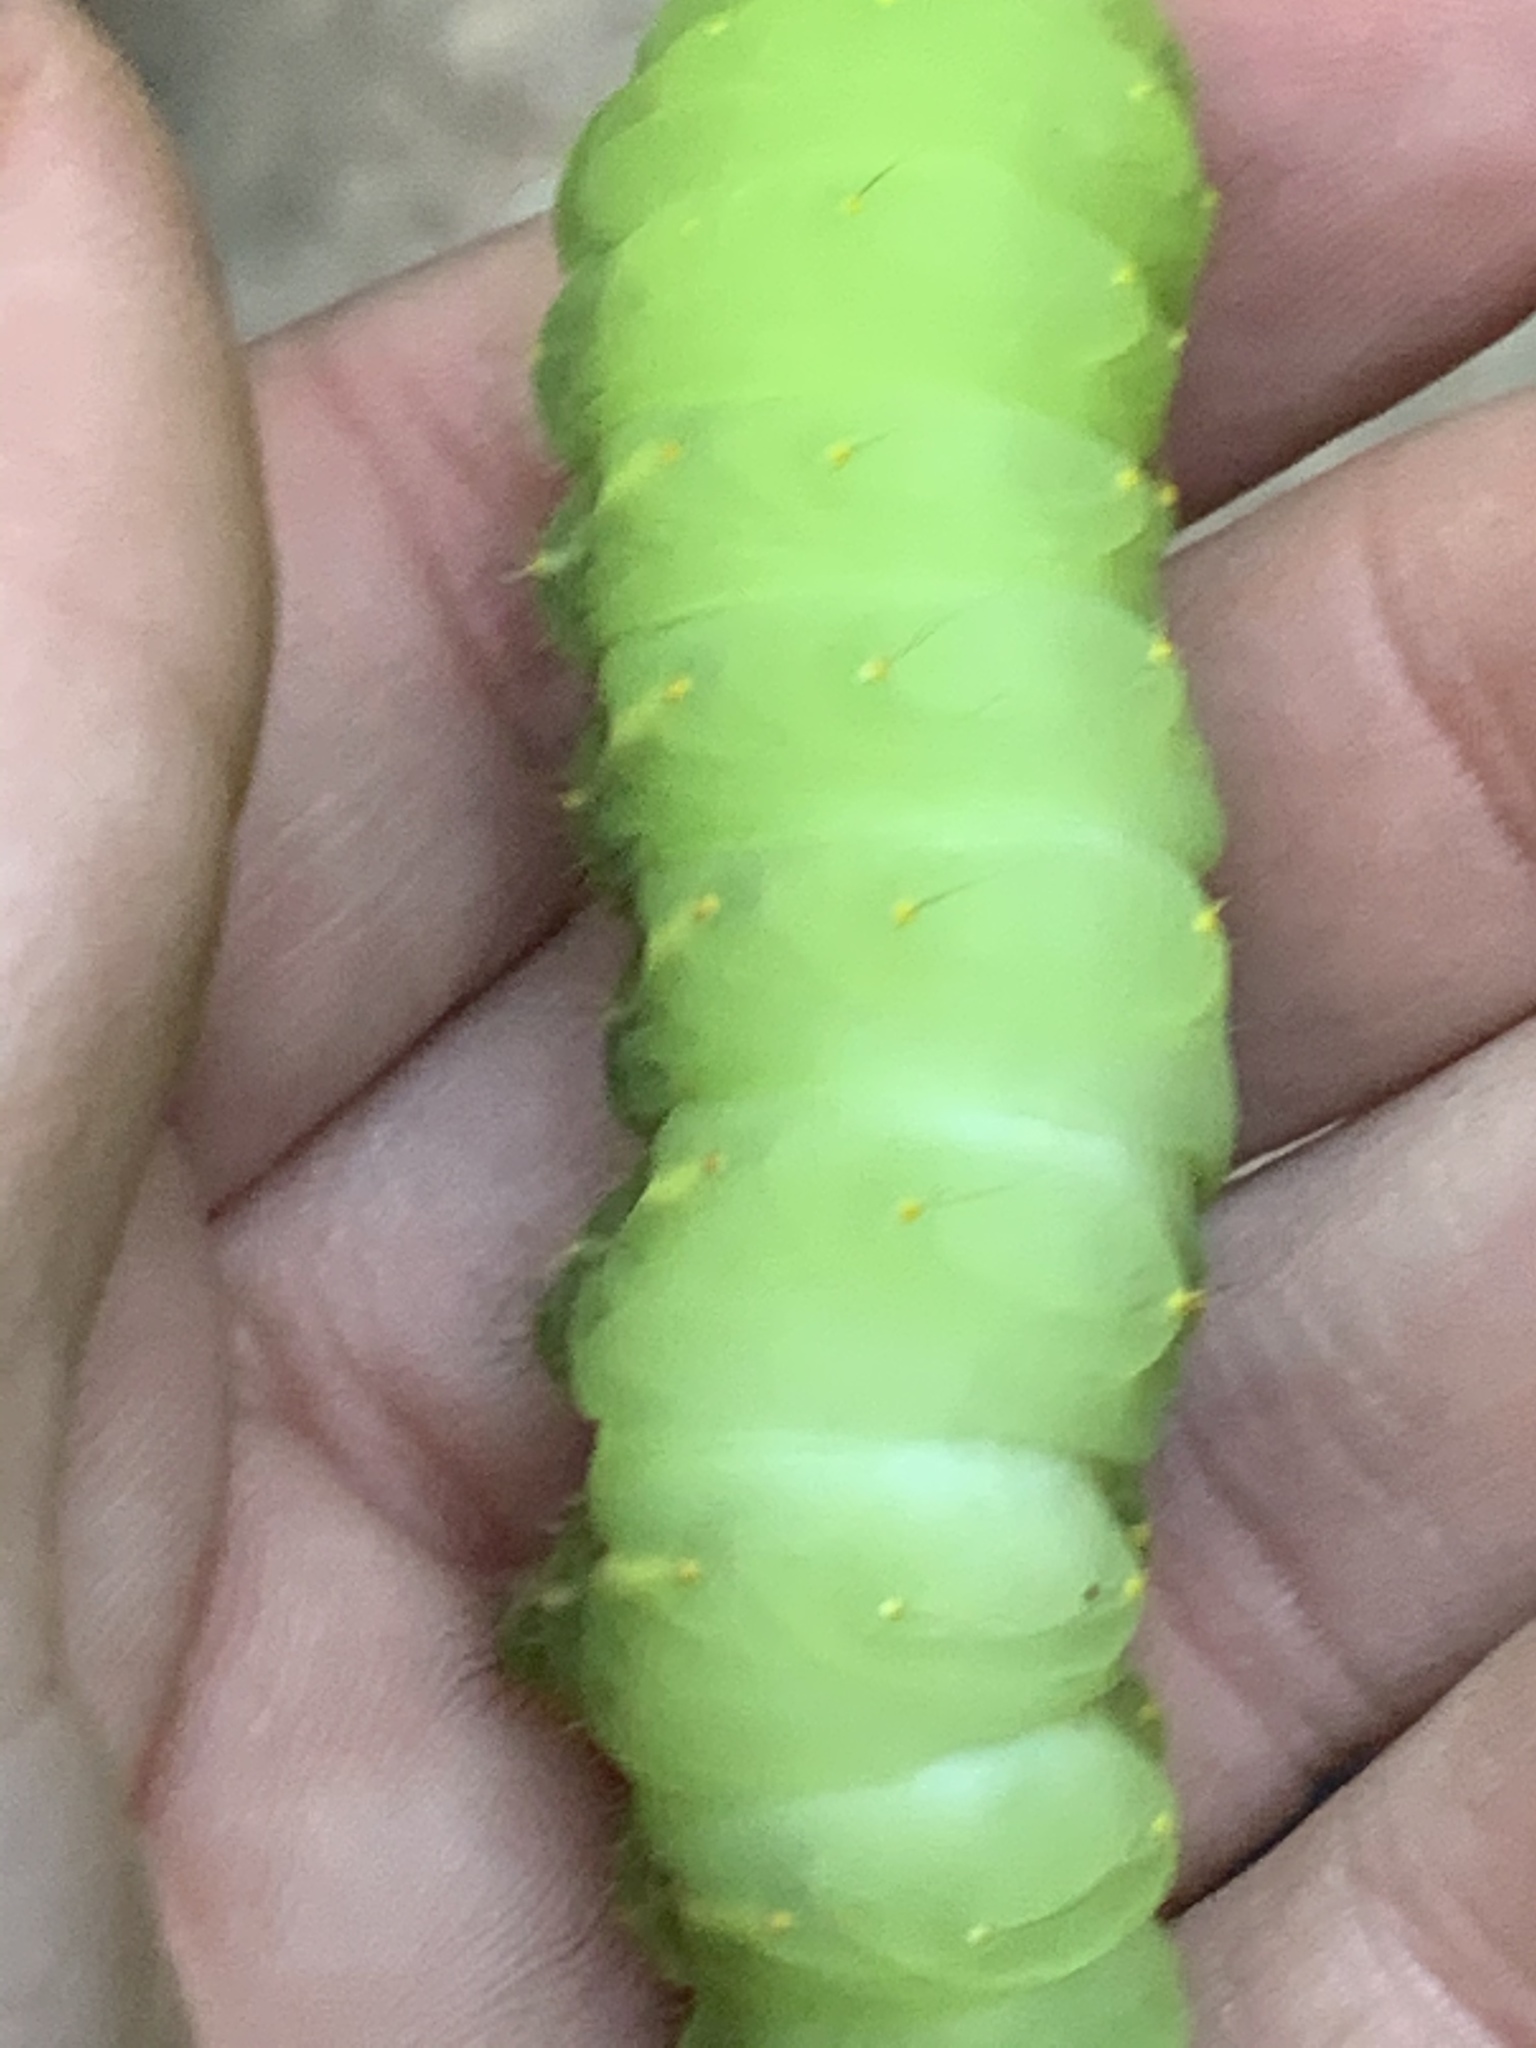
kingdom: Animalia
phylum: Arthropoda
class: Insecta
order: Lepidoptera
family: Saturniidae
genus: Antheraea
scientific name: Antheraea polyphemus
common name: Polyphemus moth
